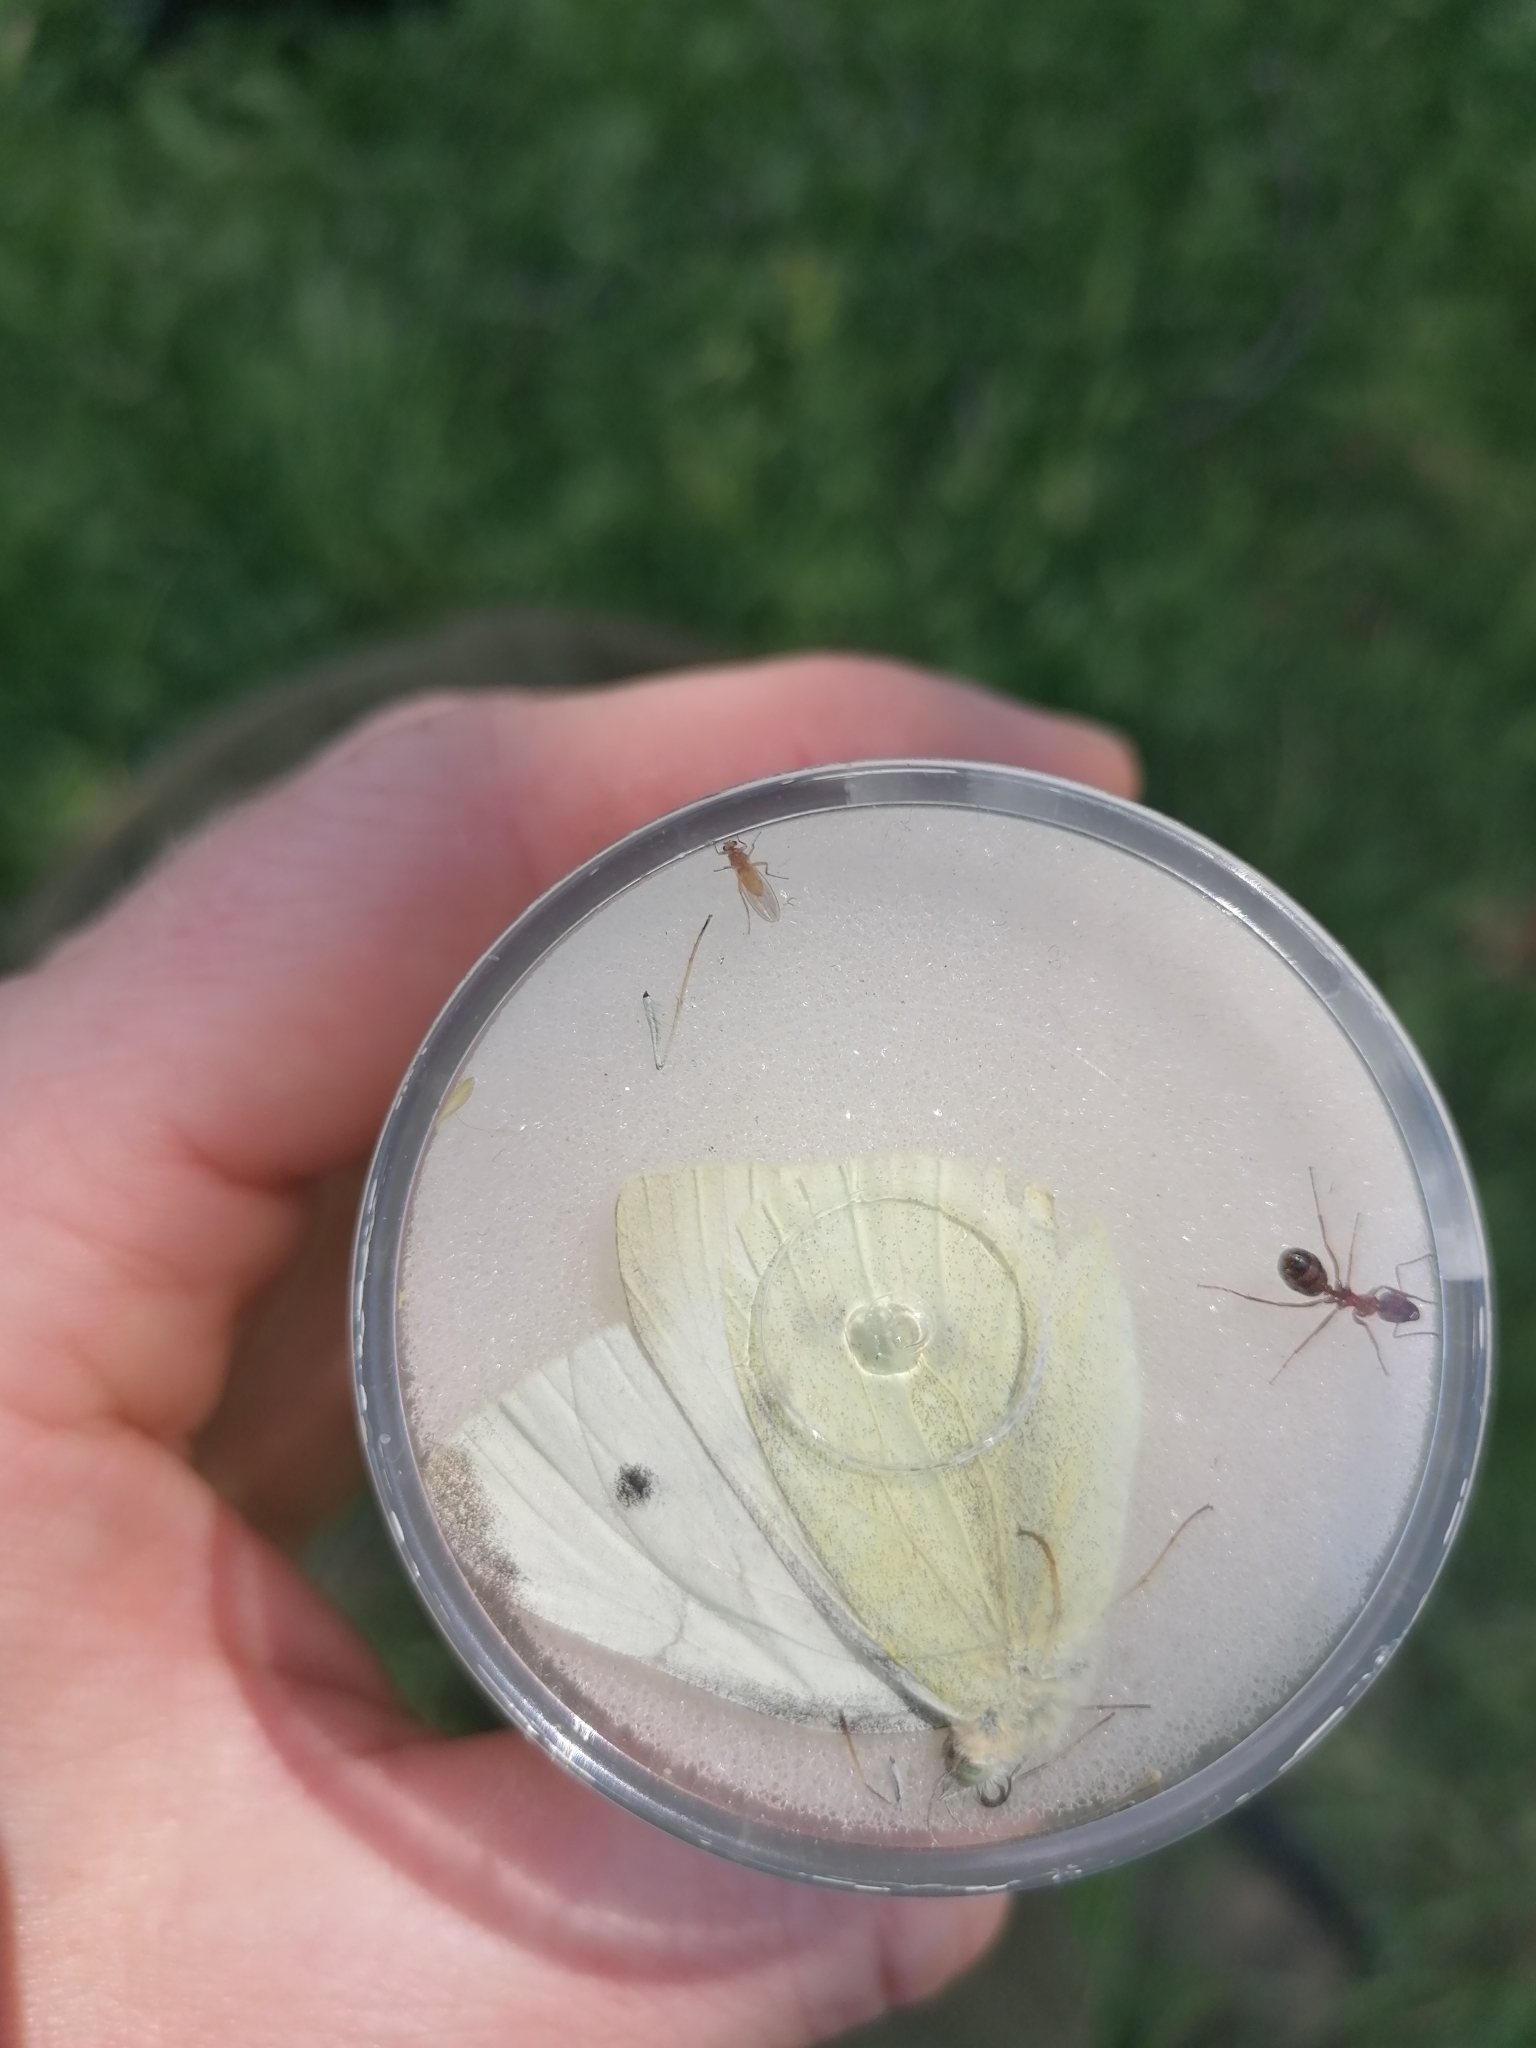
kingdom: Animalia
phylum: Arthropoda
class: Insecta
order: Lepidoptera
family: Pieridae
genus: Pieris
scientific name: Pieris rapae
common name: Small white
